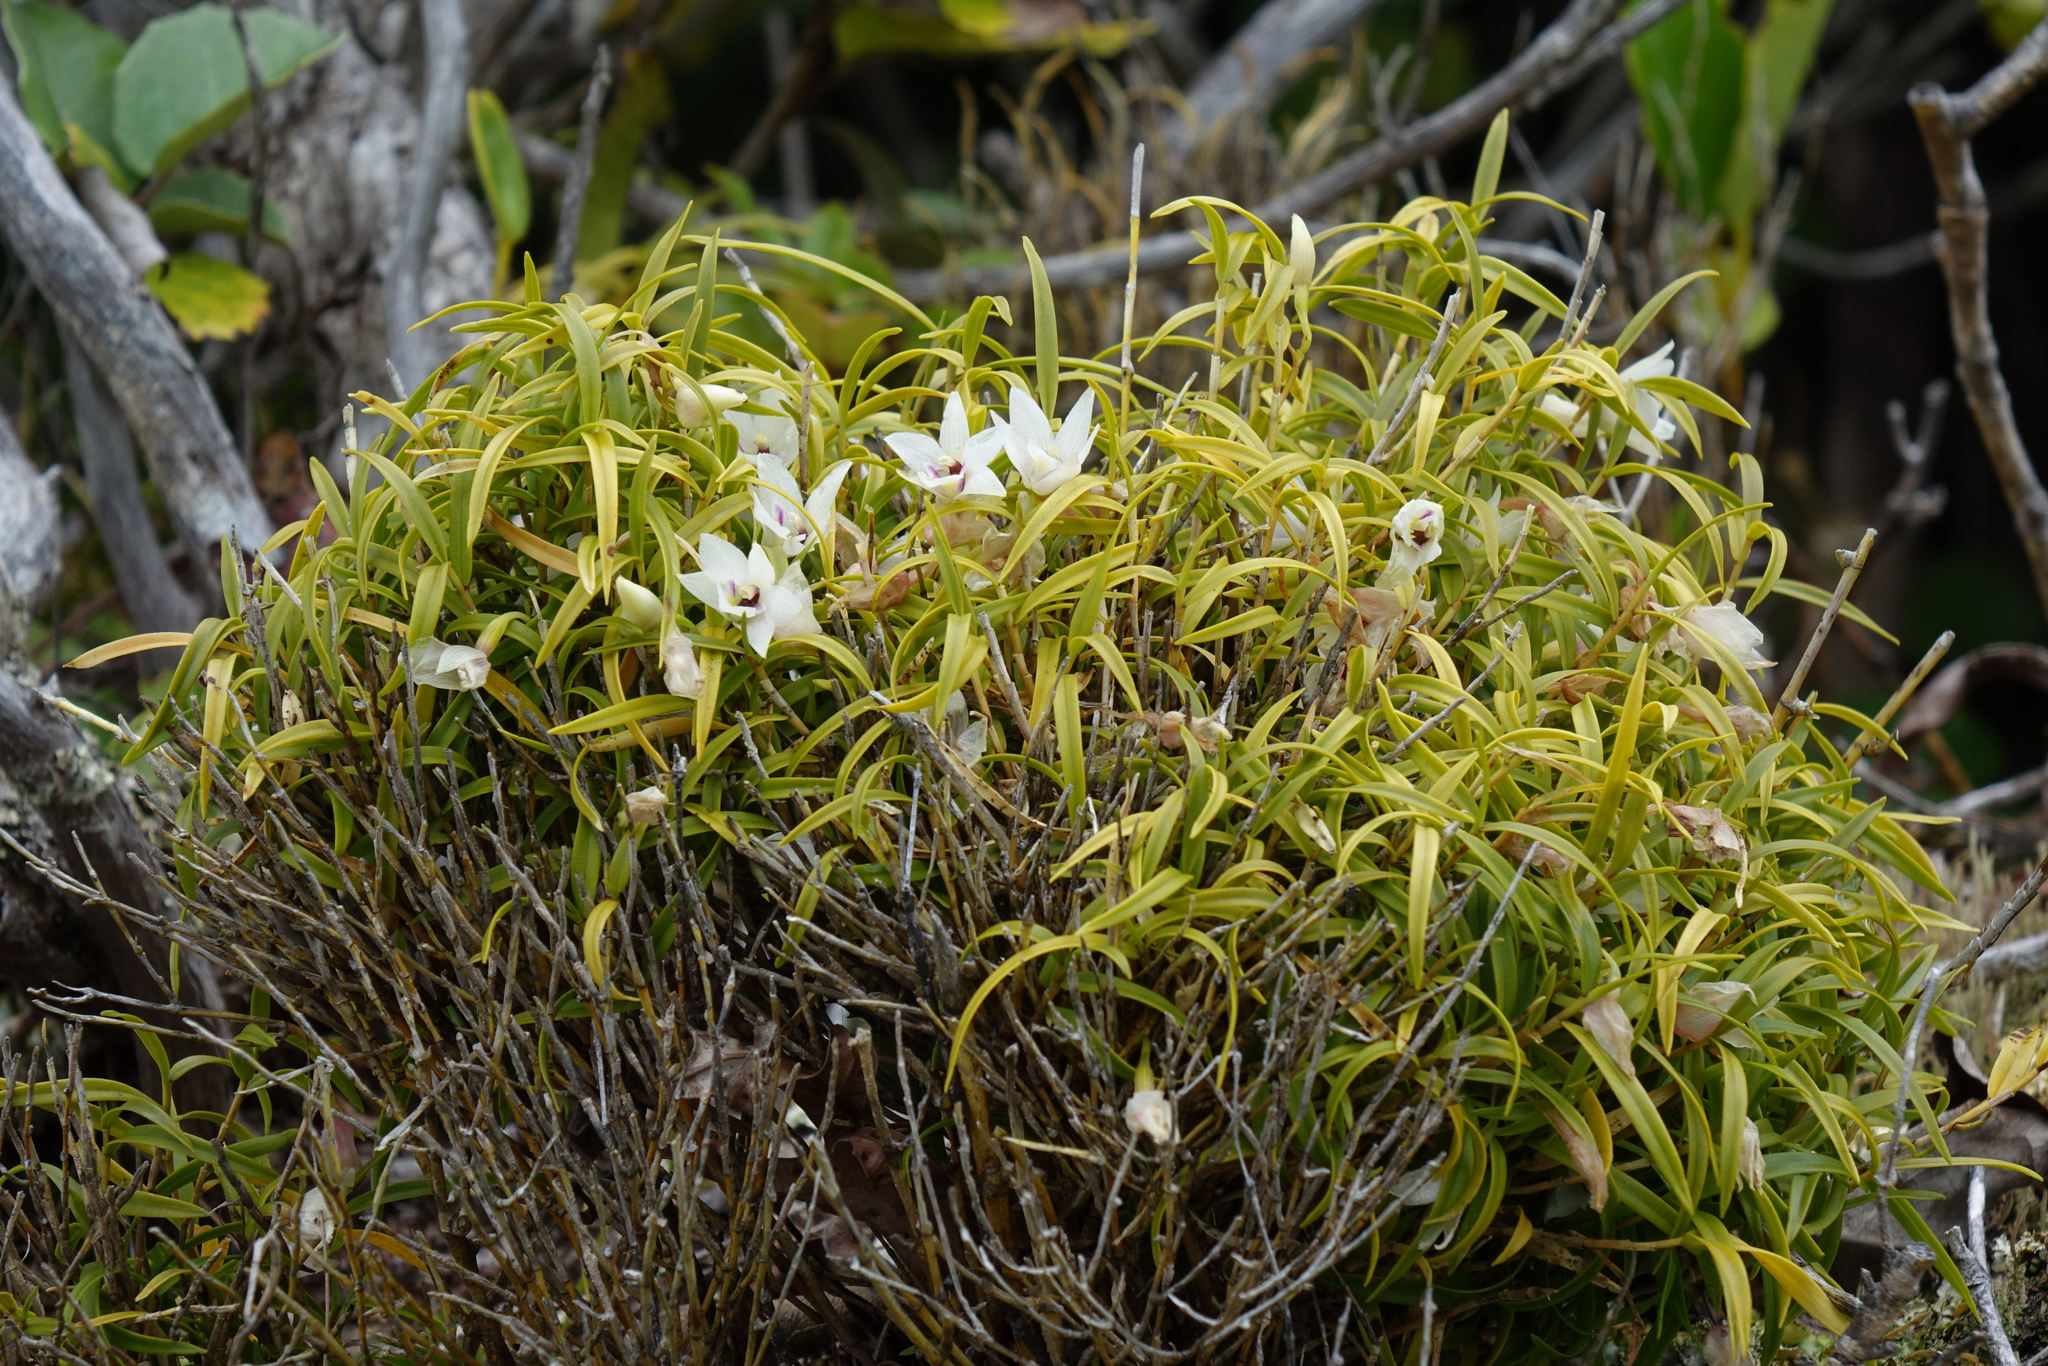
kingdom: Plantae
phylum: Tracheophyta
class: Liliopsida
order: Asparagales
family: Orchidaceae
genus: Dendrobium
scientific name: Dendrobium cunninghamii
